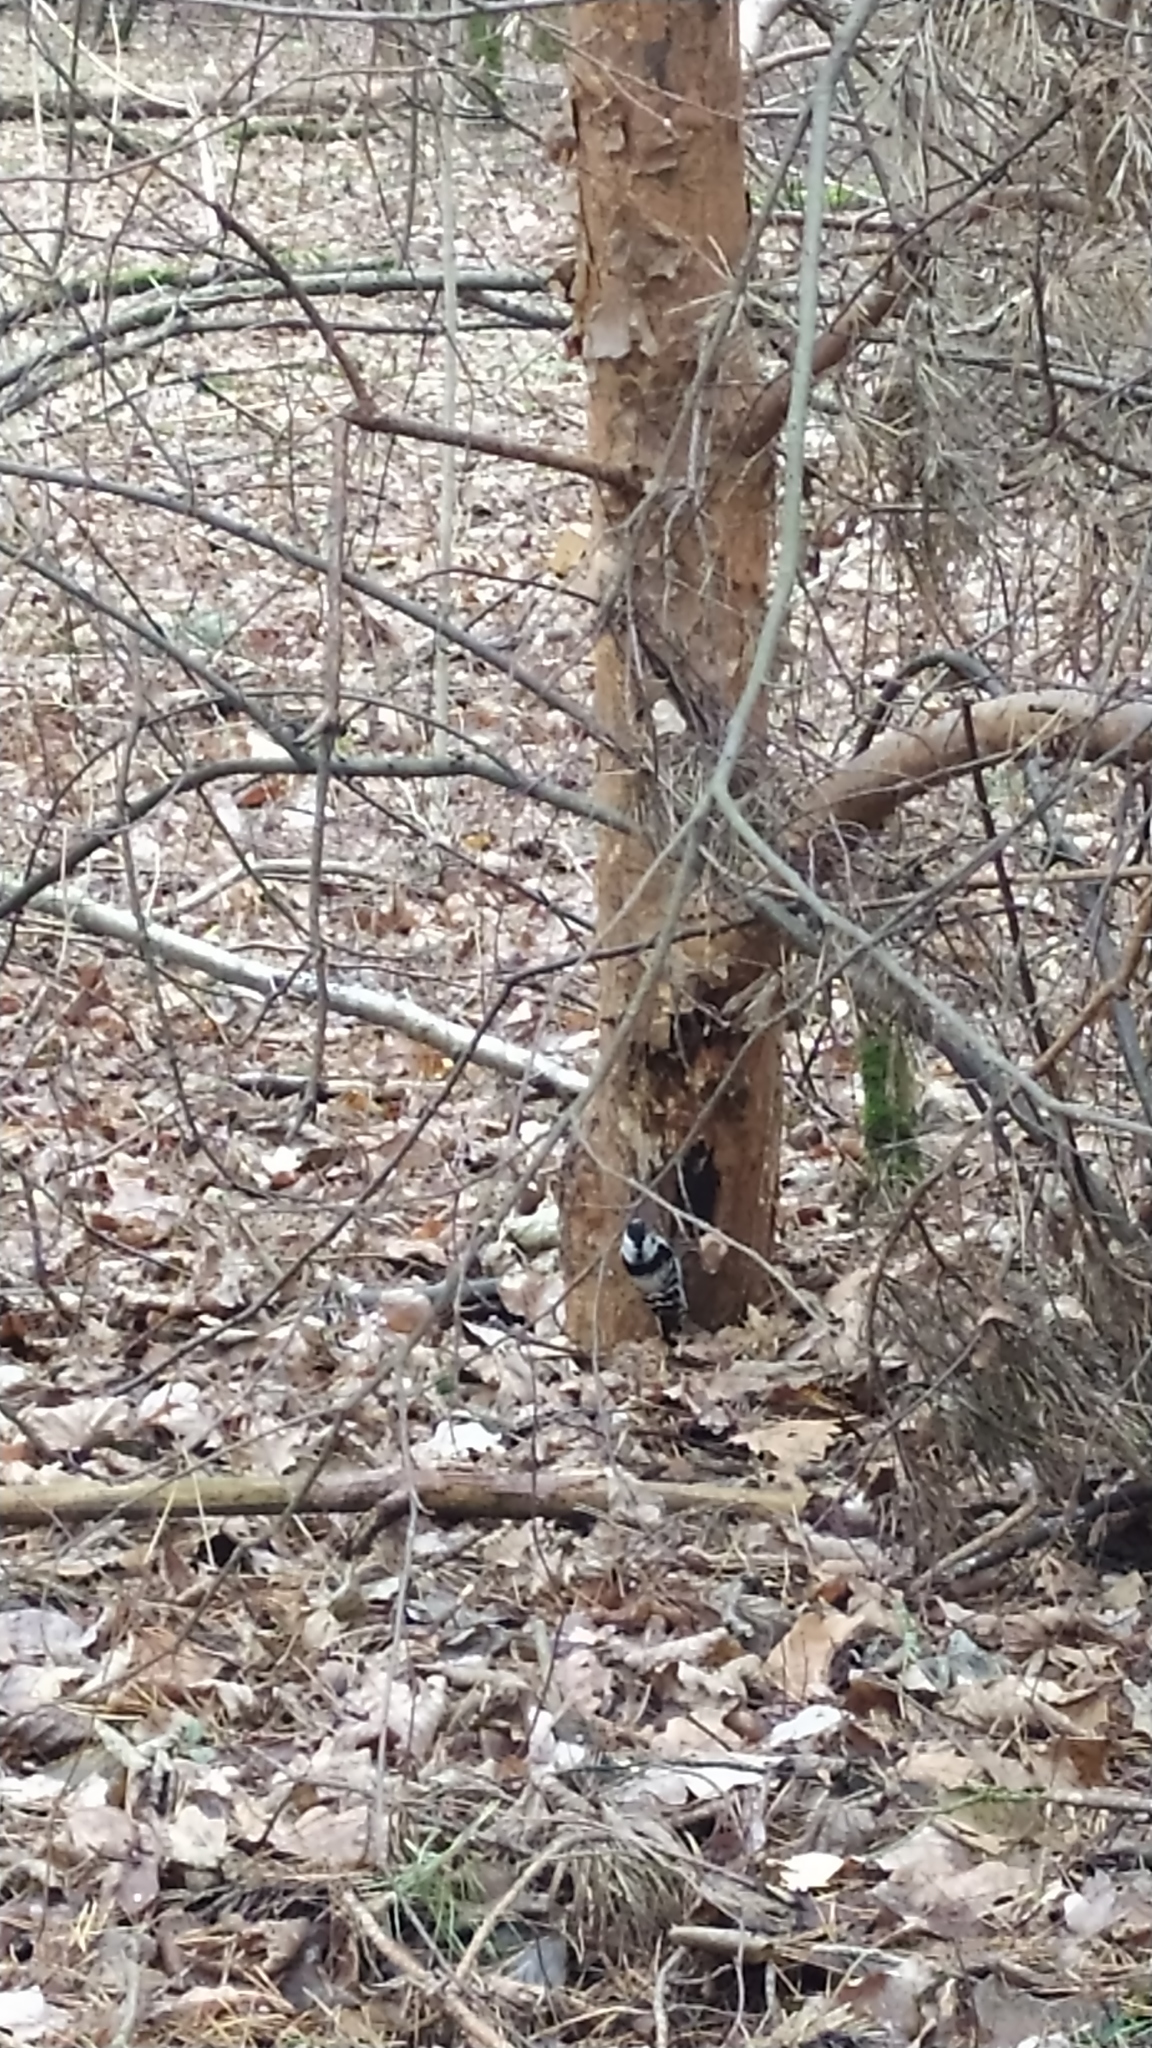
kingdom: Animalia
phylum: Chordata
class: Aves
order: Piciformes
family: Picidae
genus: Dryobates
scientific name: Dryobates minor
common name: Lesser spotted woodpecker
